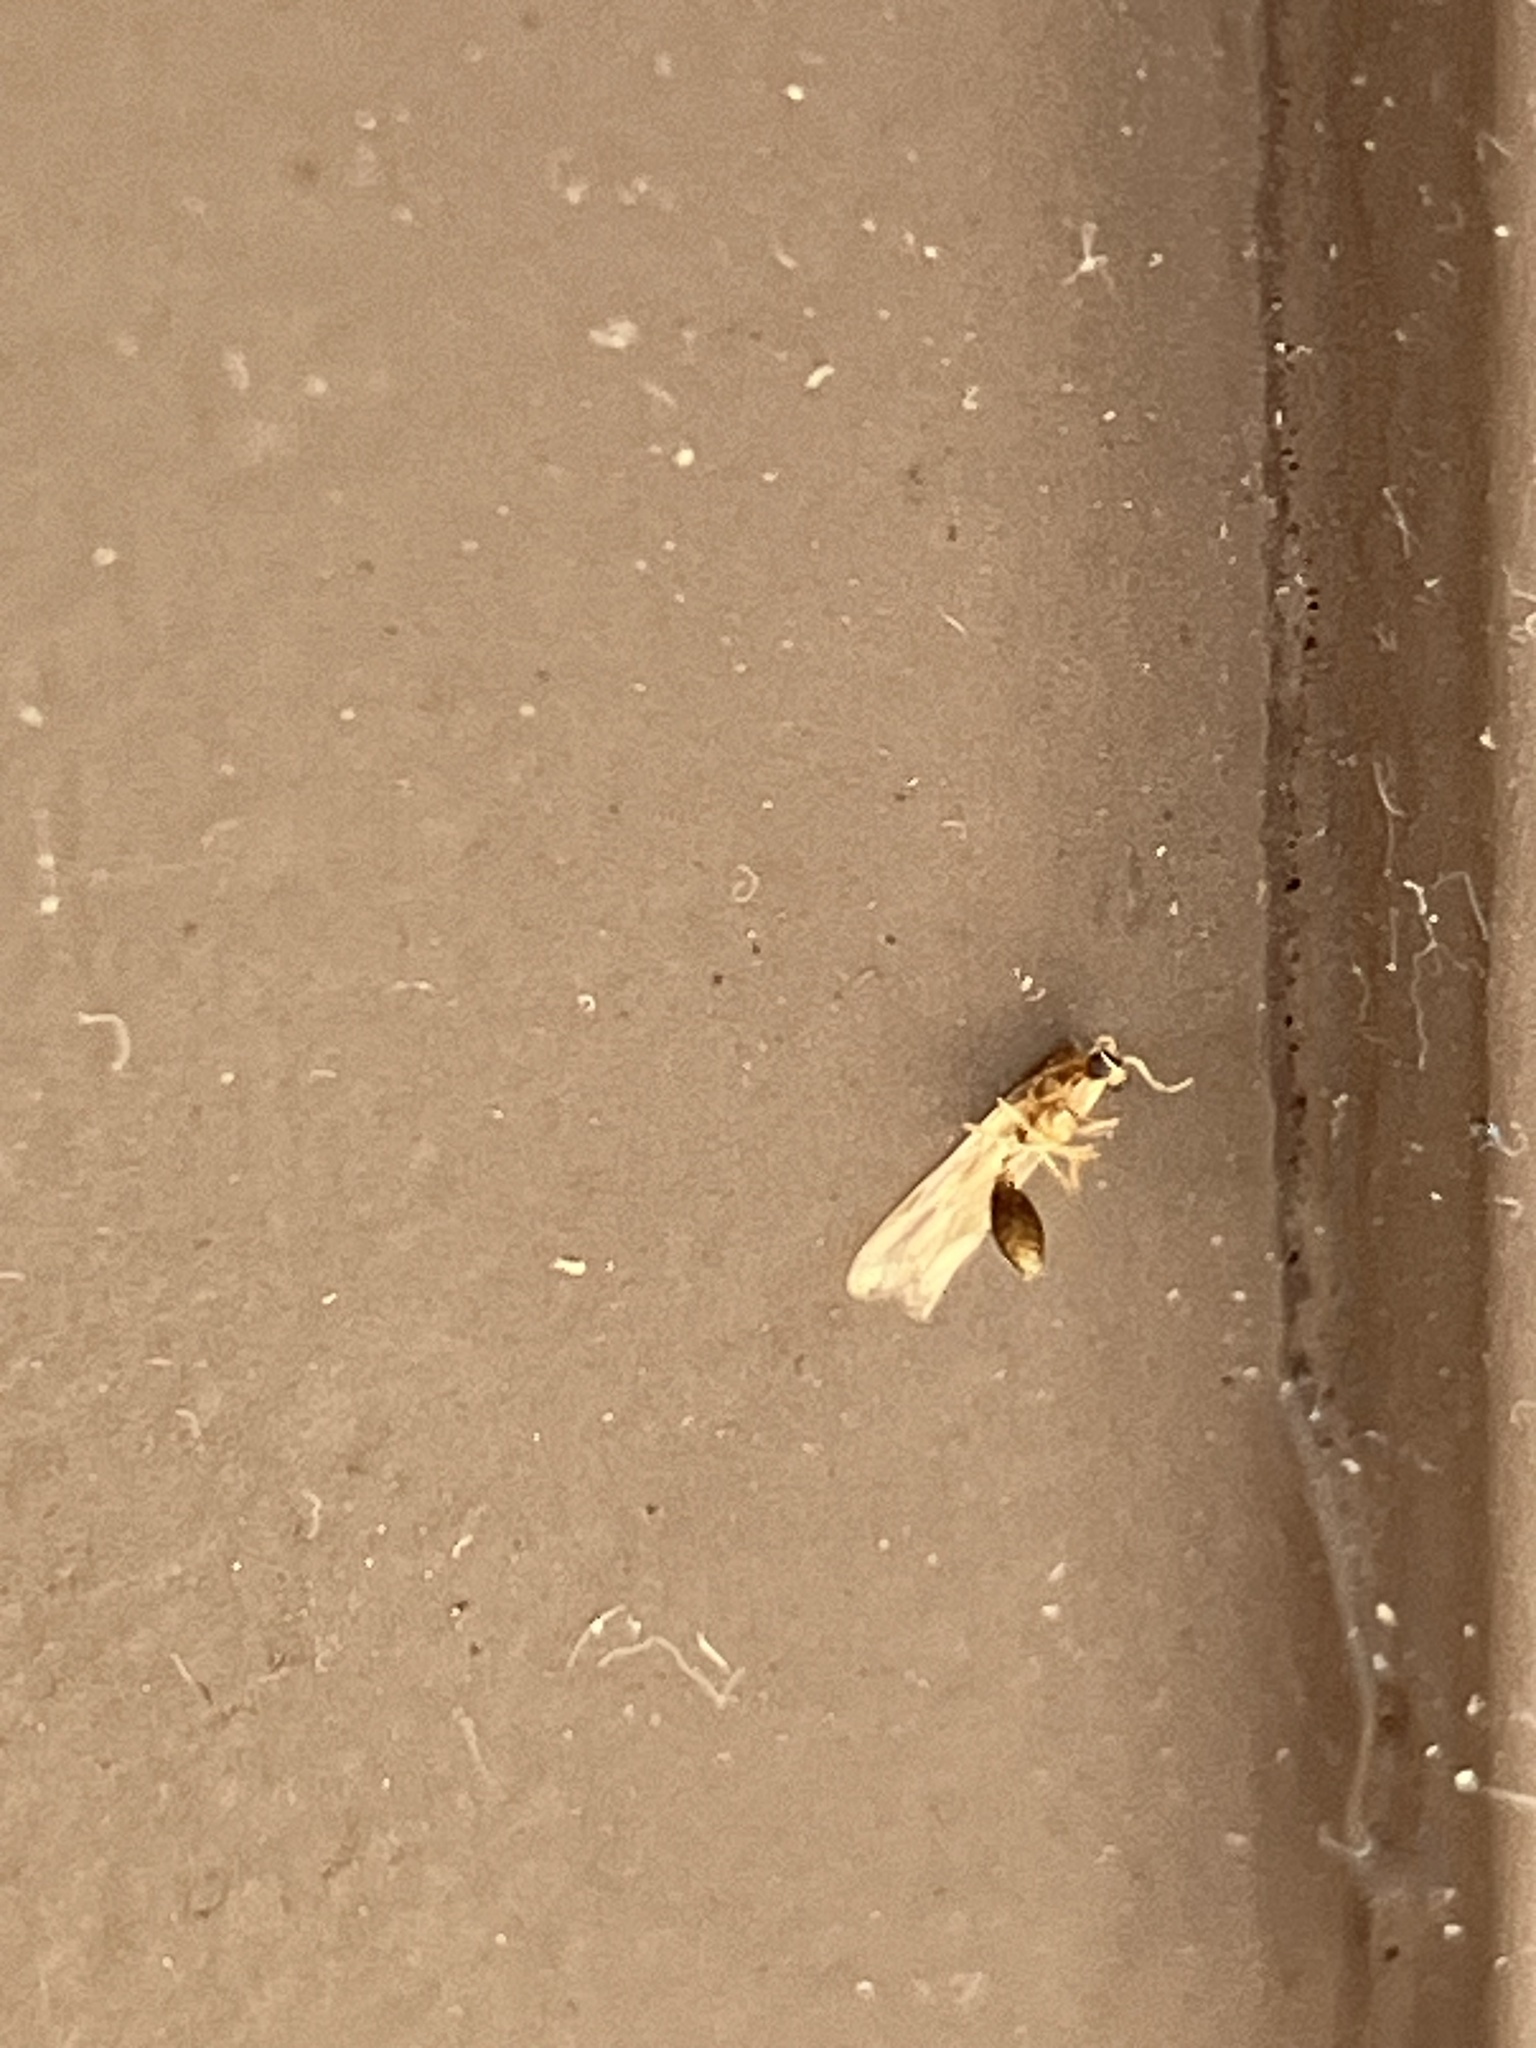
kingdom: Animalia
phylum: Arthropoda
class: Insecta
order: Hymenoptera
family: Formicidae
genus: Pheidole
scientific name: Pheidole
